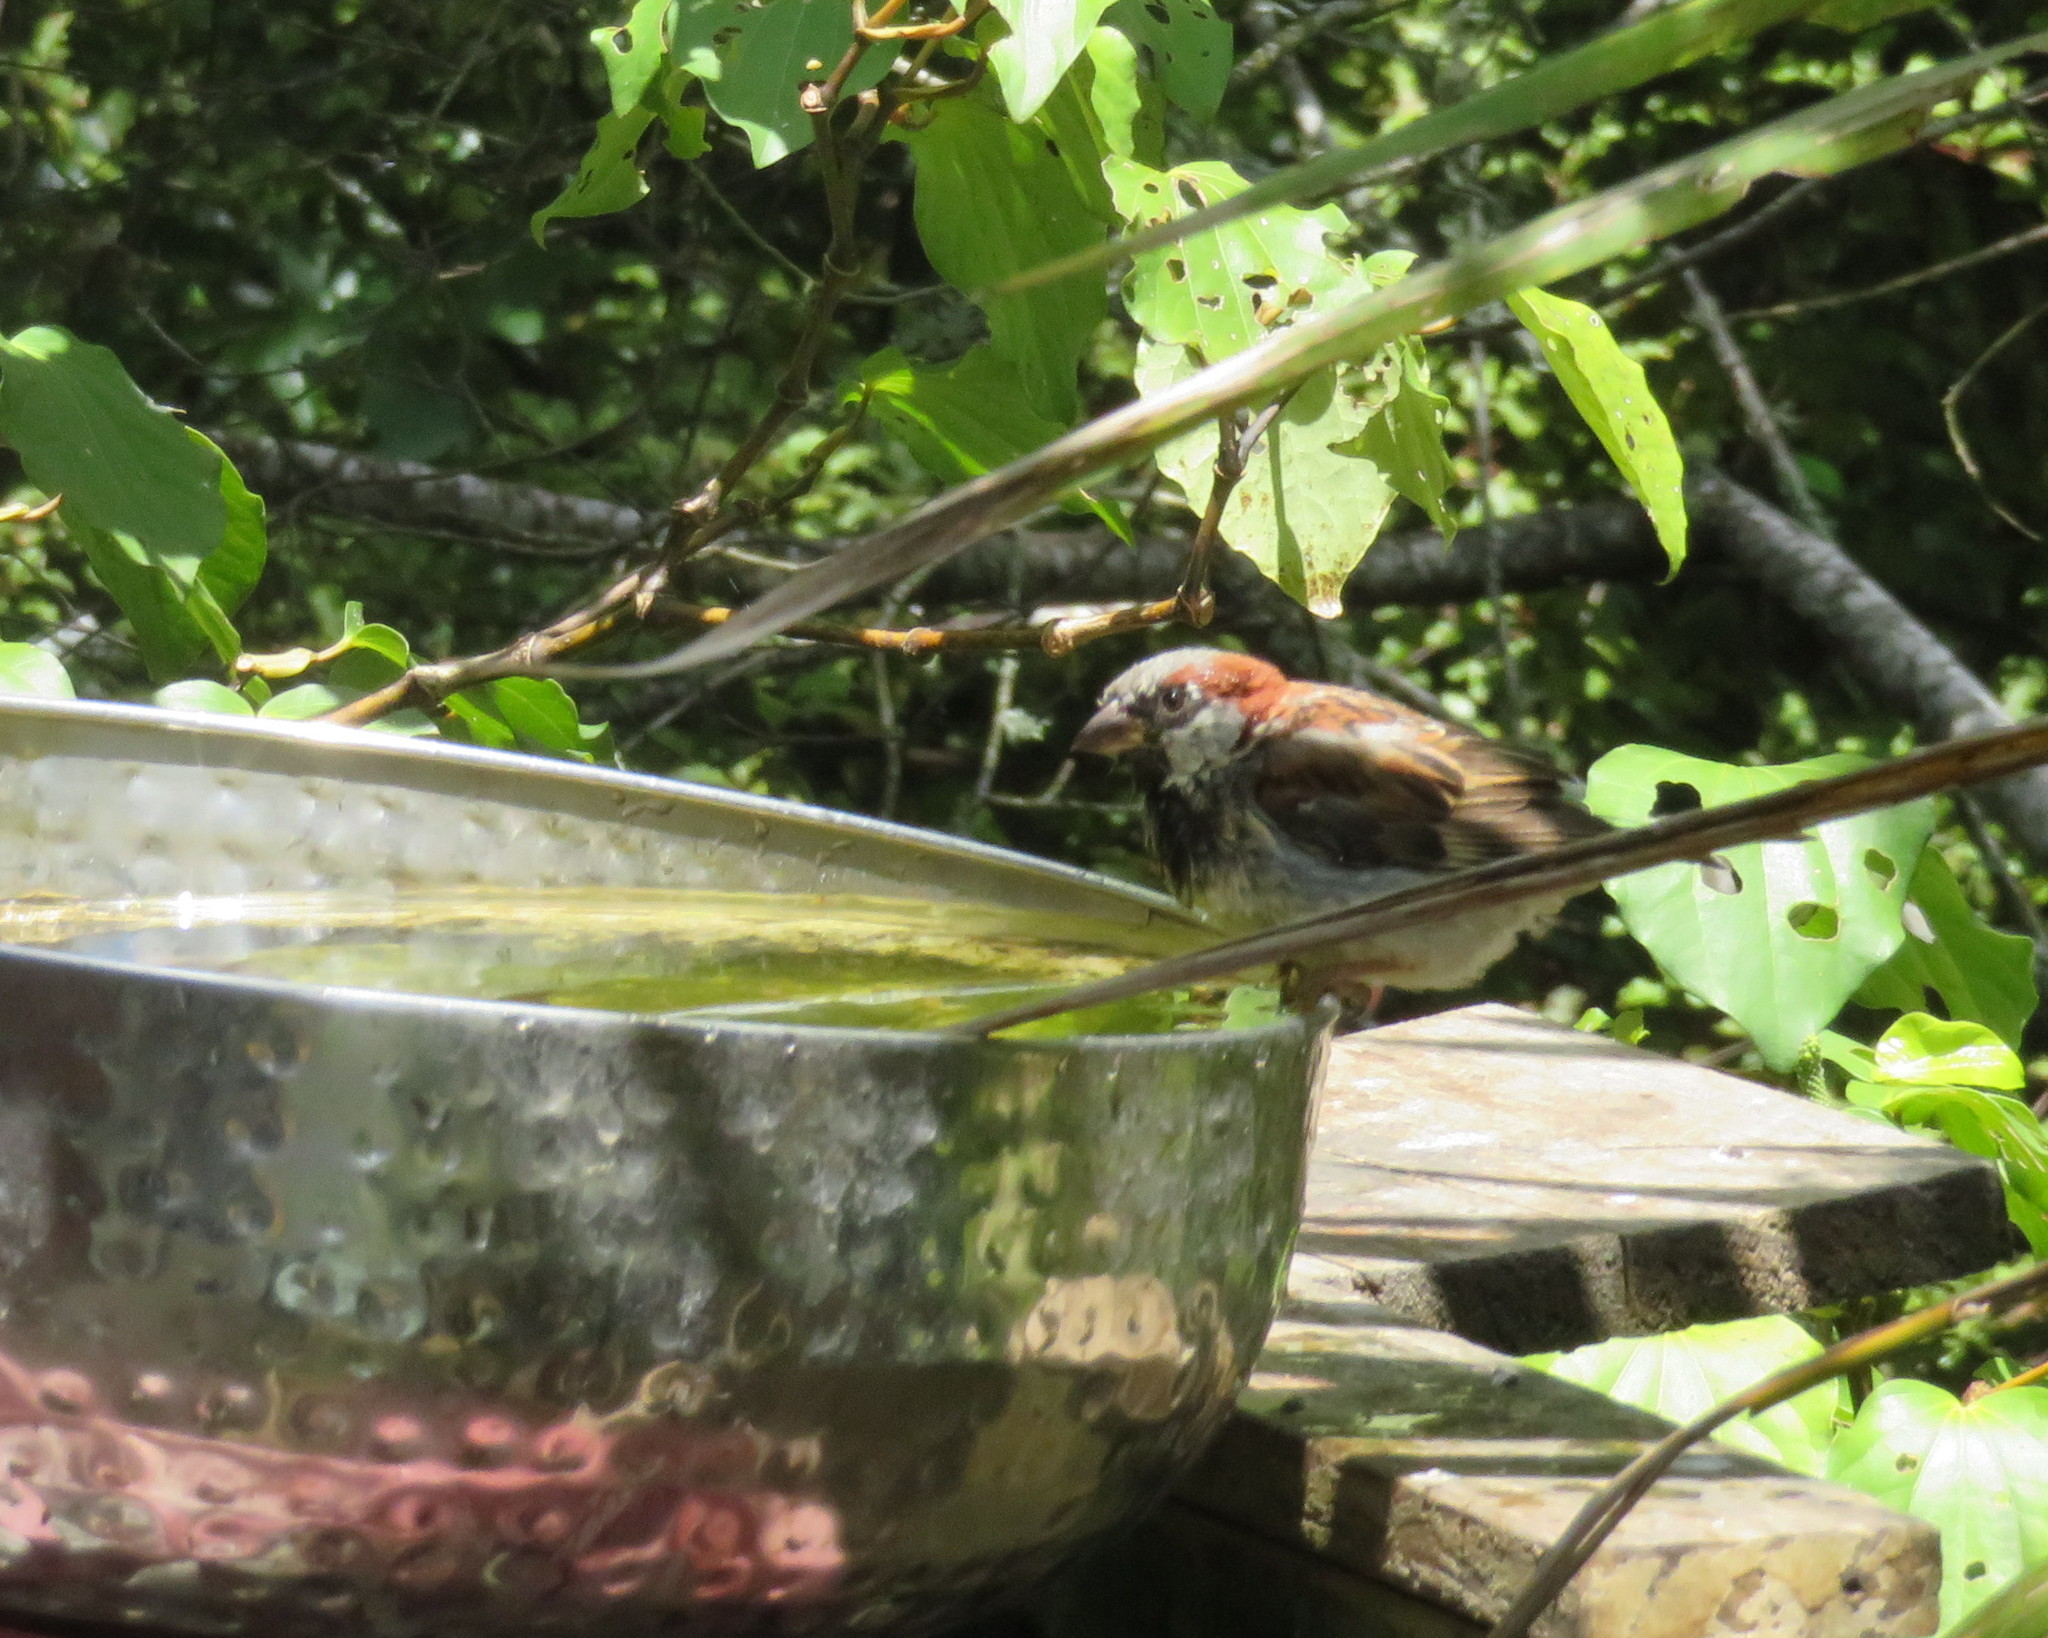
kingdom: Animalia
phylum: Chordata
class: Aves
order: Passeriformes
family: Passeridae
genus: Passer
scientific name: Passer domesticus
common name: House sparrow
